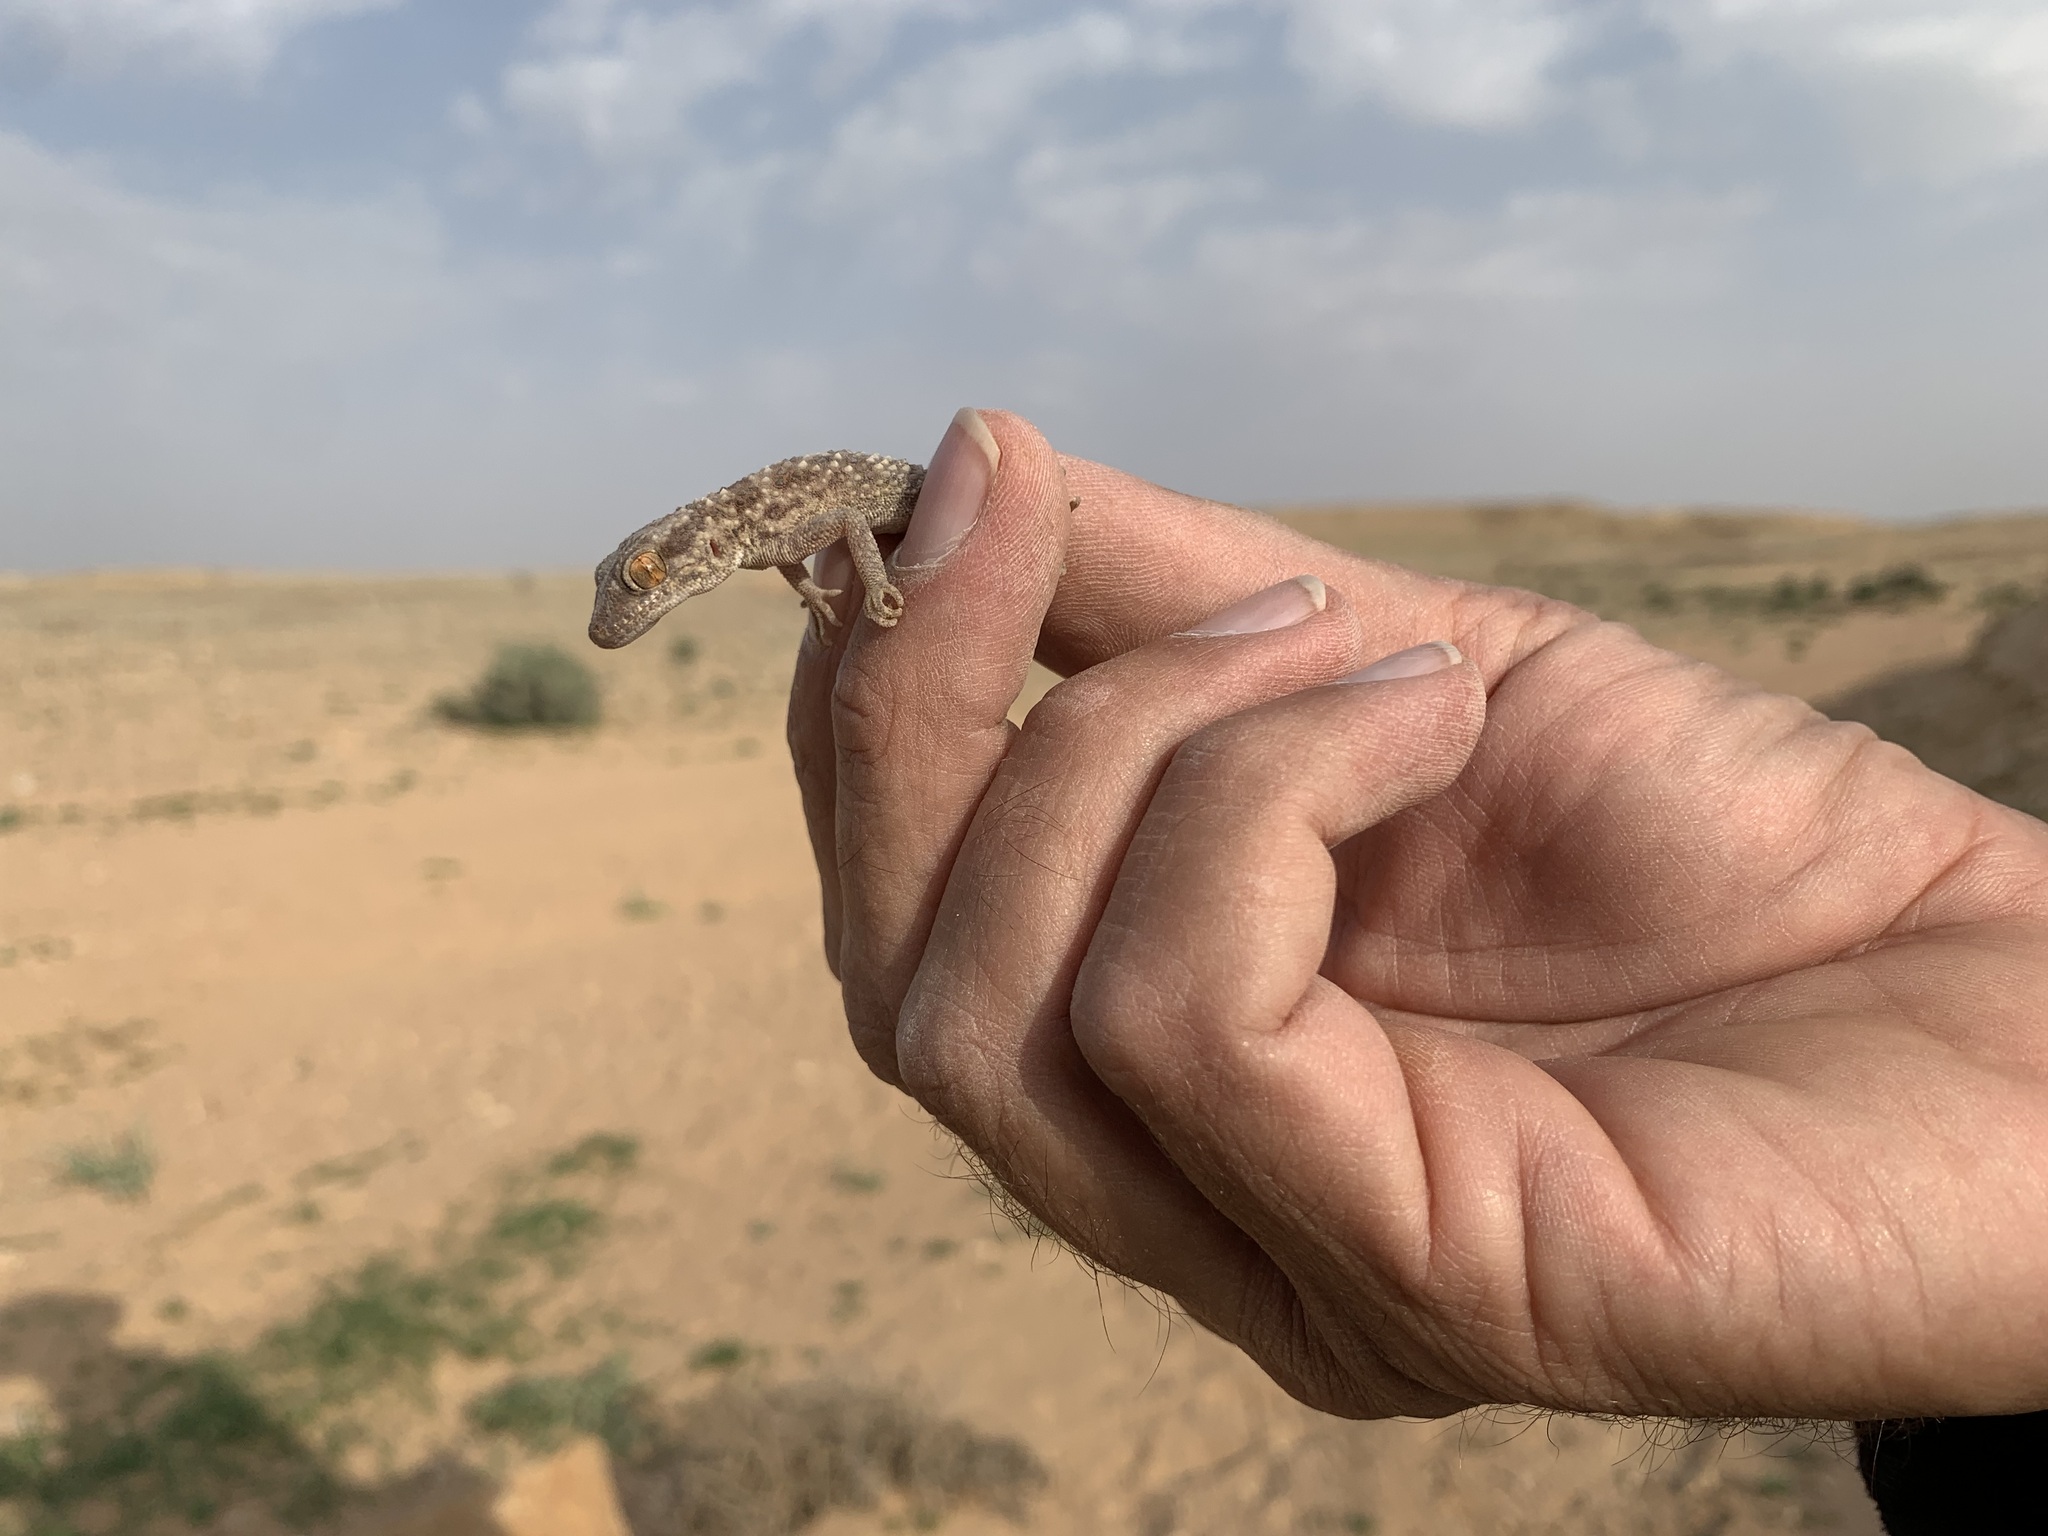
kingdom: Animalia
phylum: Chordata
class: Squamata
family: Gekkonidae
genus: Bunopus
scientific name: Bunopus tuberculatus
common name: Southern tuberculated gecko
